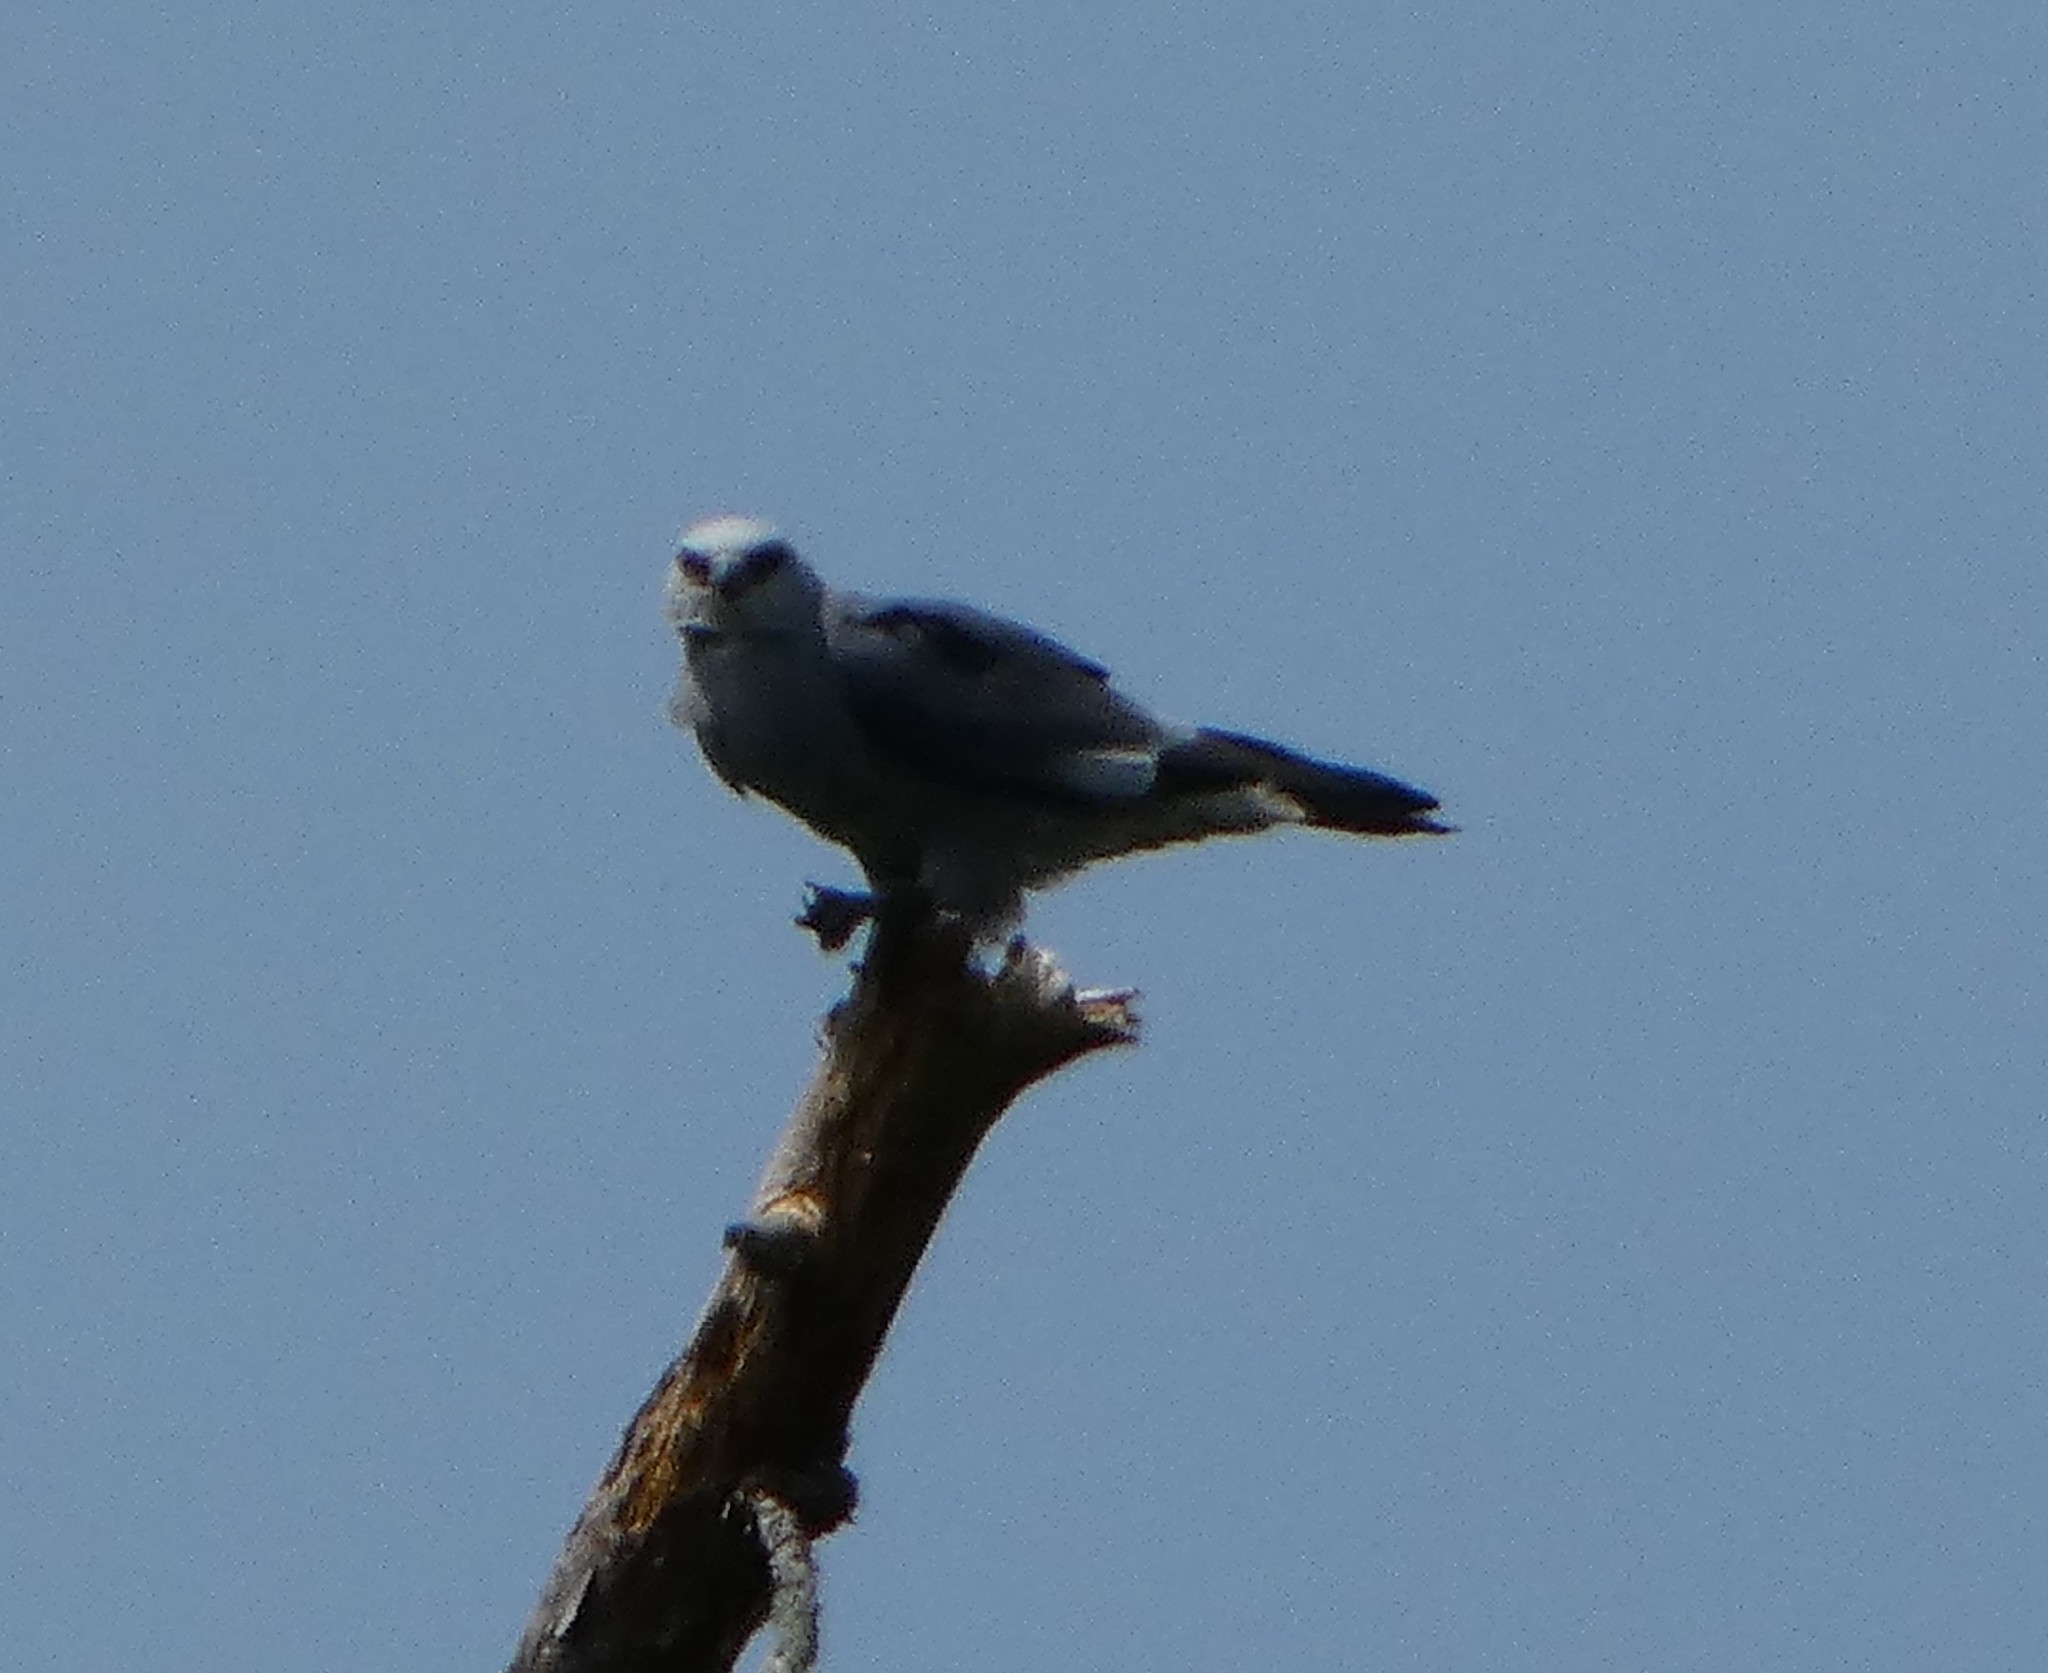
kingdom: Animalia
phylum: Chordata
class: Aves
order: Accipitriformes
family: Accipitridae
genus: Ictinia
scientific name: Ictinia mississippiensis
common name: Mississippi kite
